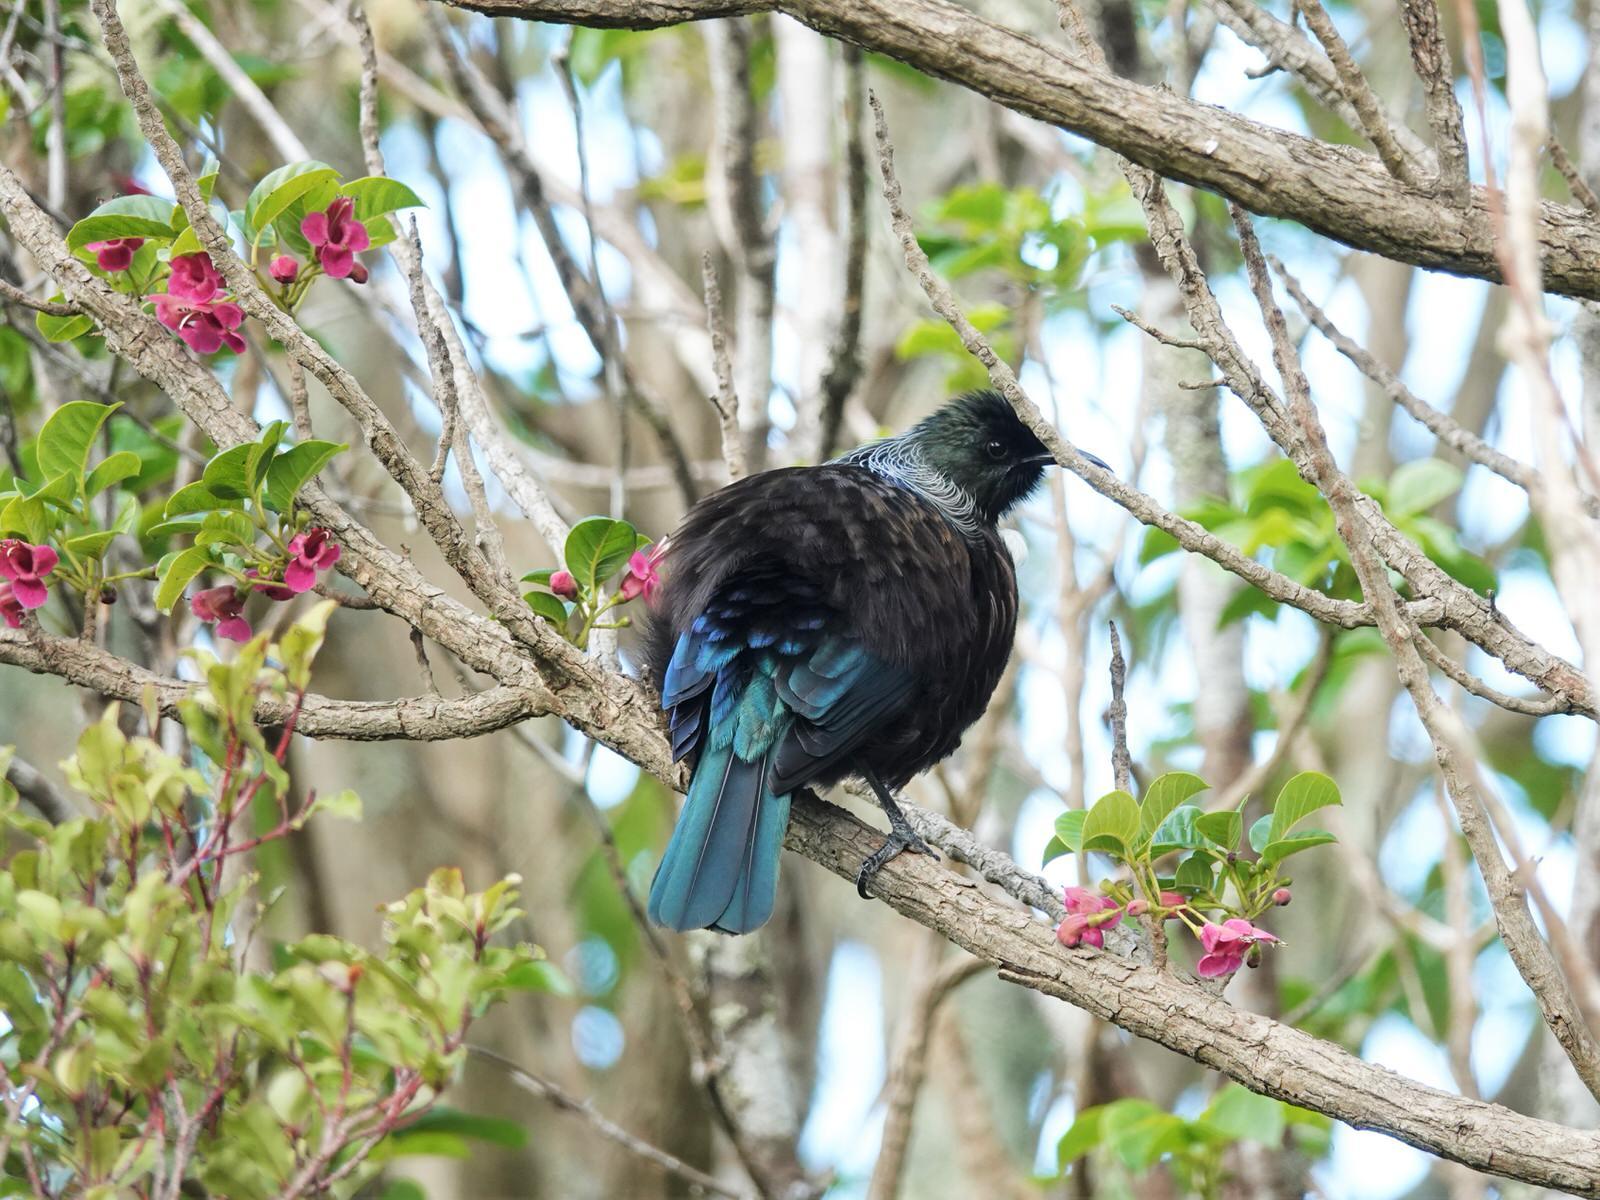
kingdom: Animalia
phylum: Chordata
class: Aves
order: Passeriformes
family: Meliphagidae
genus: Prosthemadera
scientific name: Prosthemadera novaeseelandiae
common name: Tui
